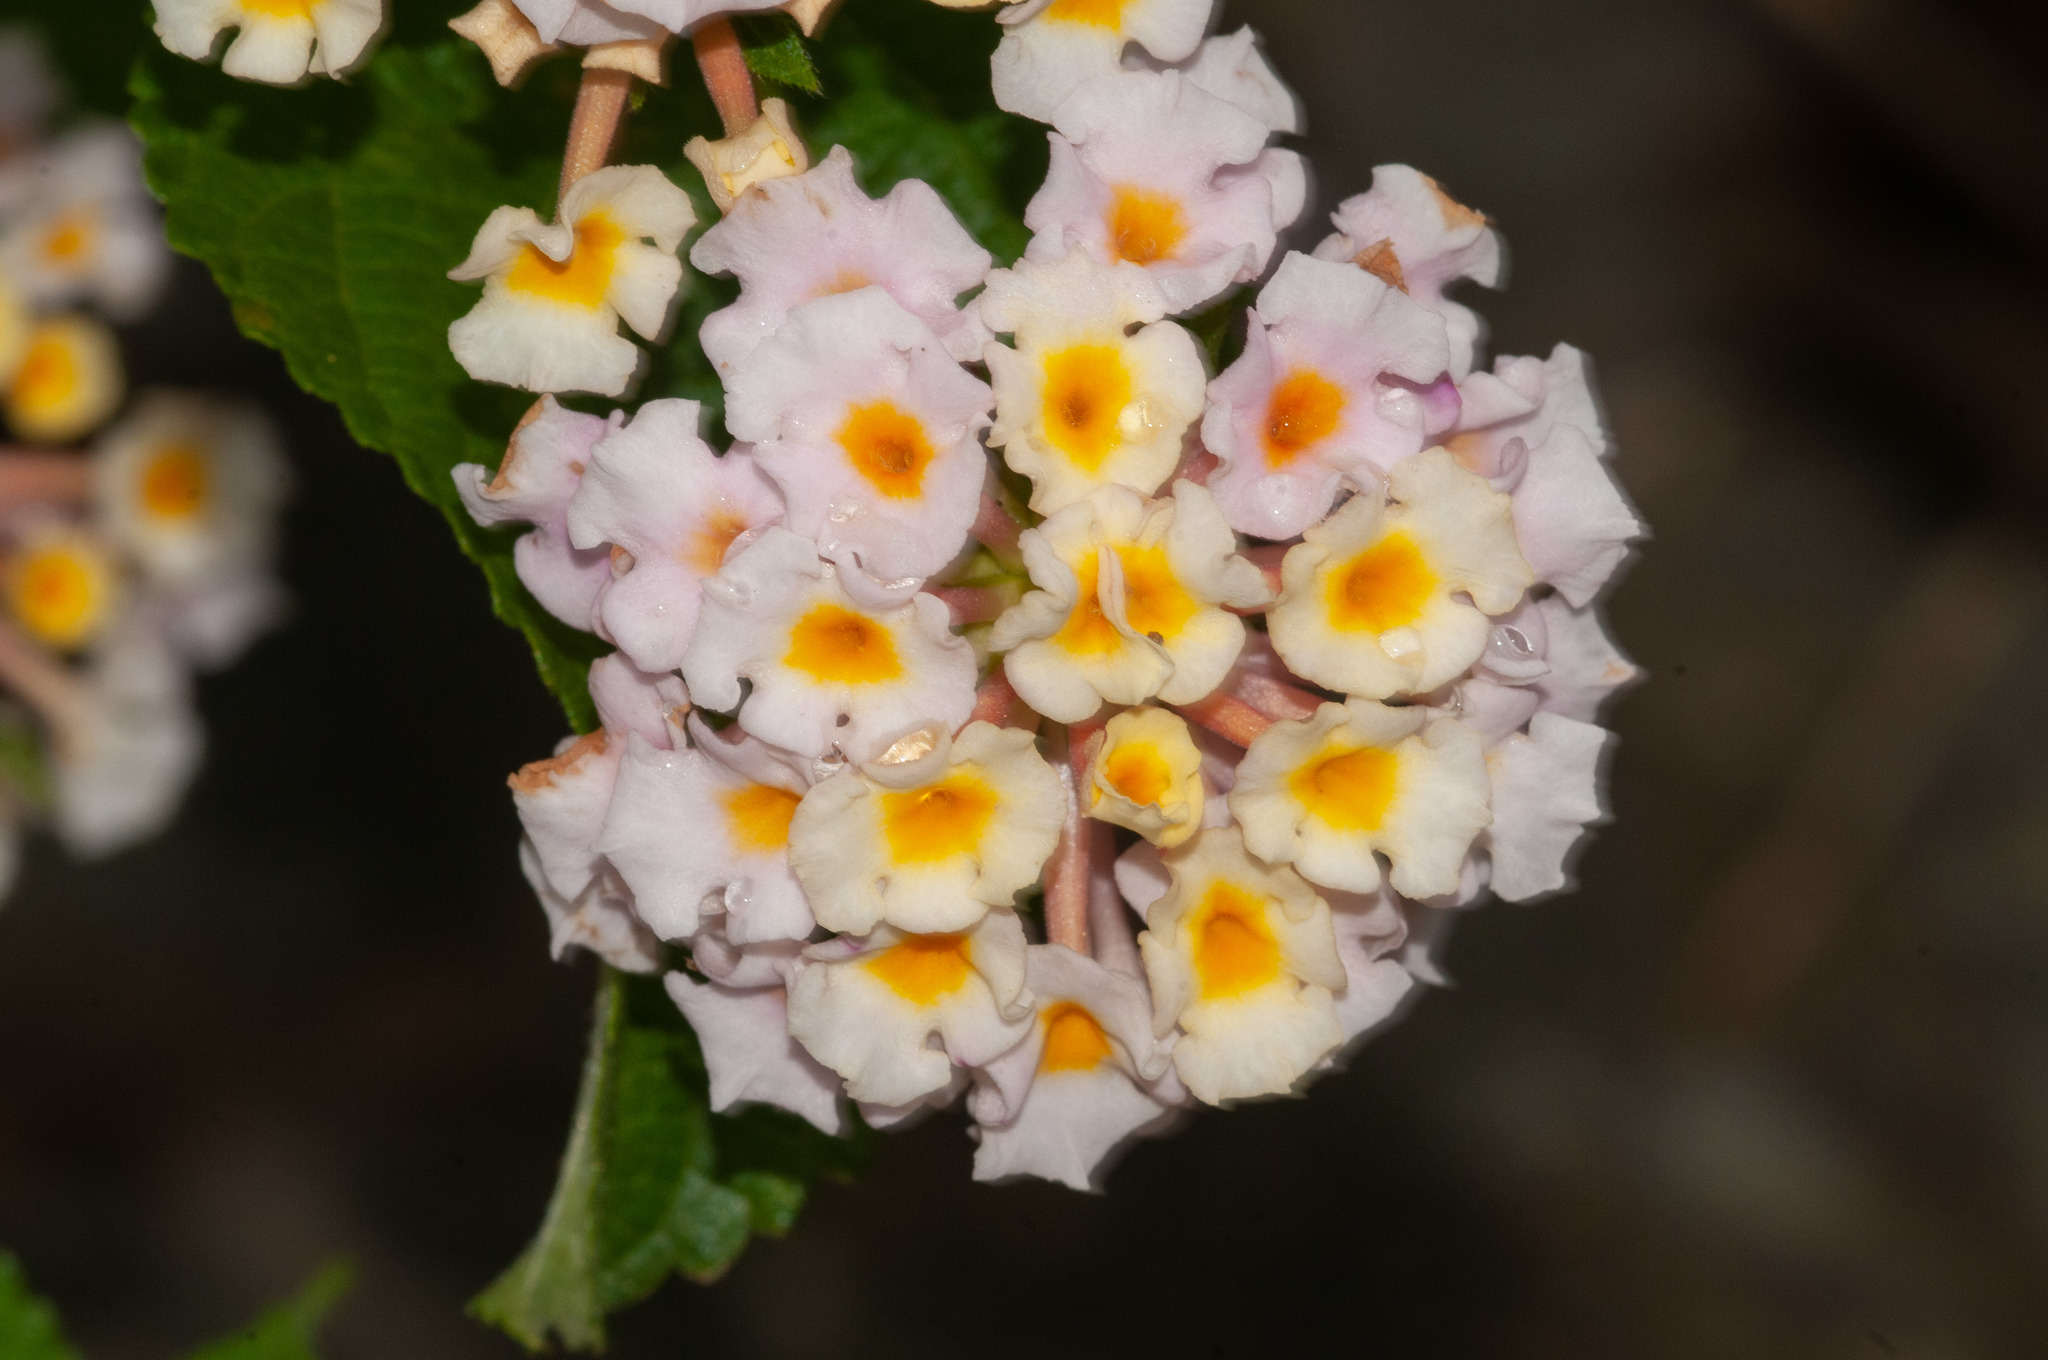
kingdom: Plantae
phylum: Tracheophyta
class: Magnoliopsida
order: Lamiales
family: Verbenaceae
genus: Lantana
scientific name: Lantana camara
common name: Lantana
